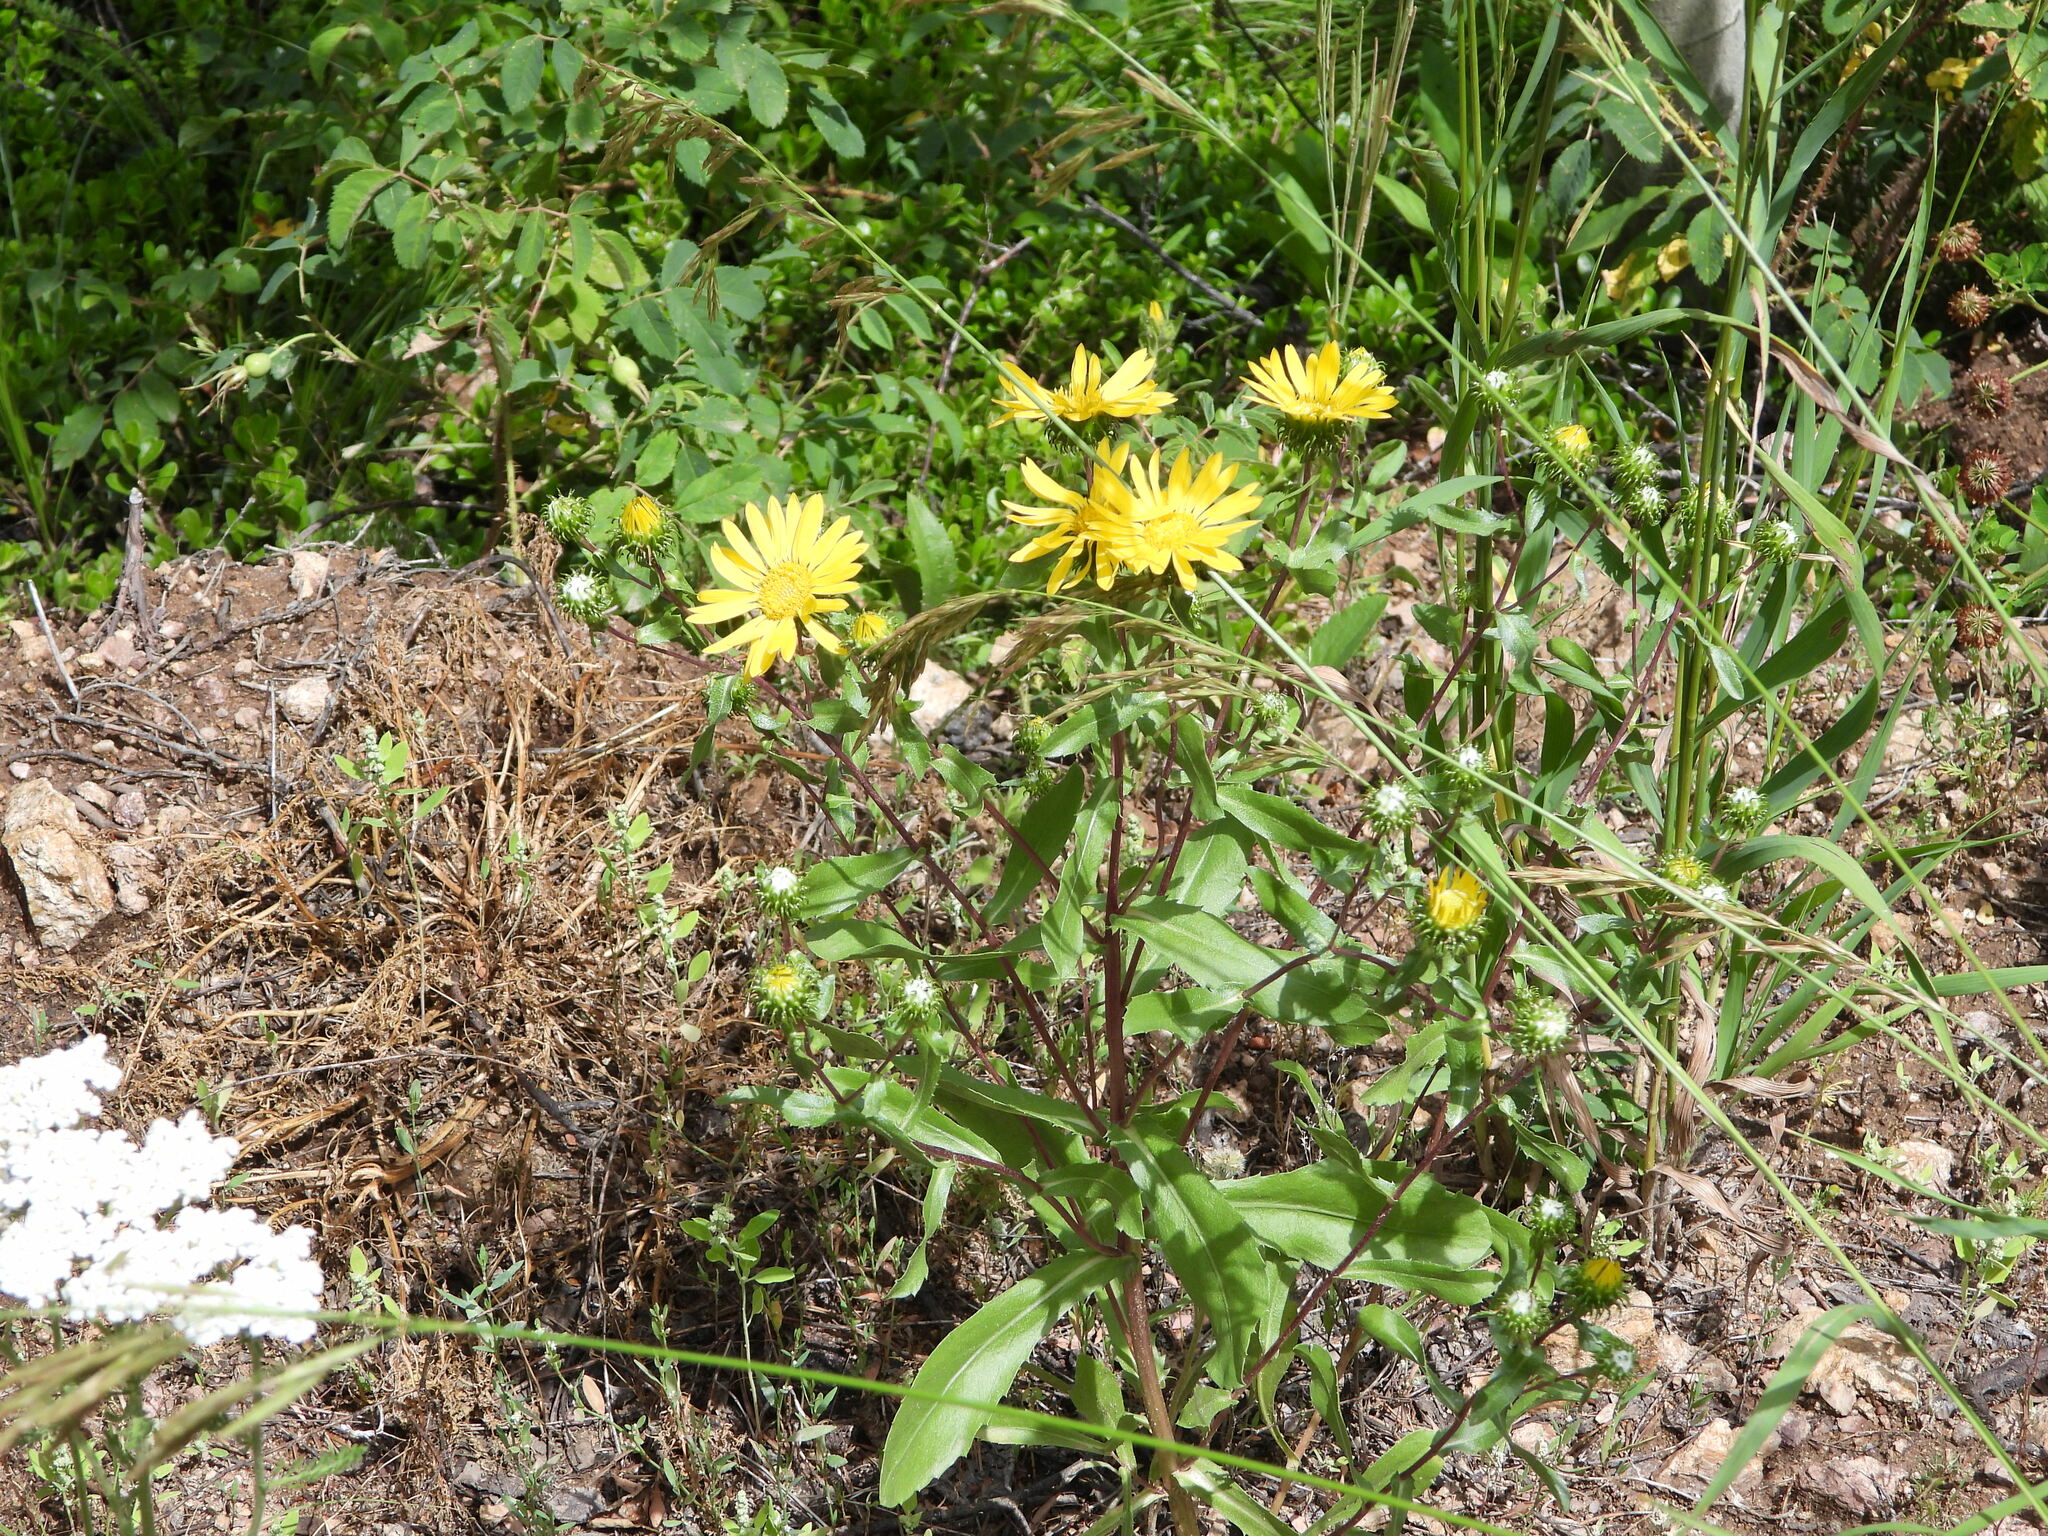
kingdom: Plantae
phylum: Tracheophyta
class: Magnoliopsida
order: Asterales
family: Asteraceae
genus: Grindelia
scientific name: Grindelia subalpina
